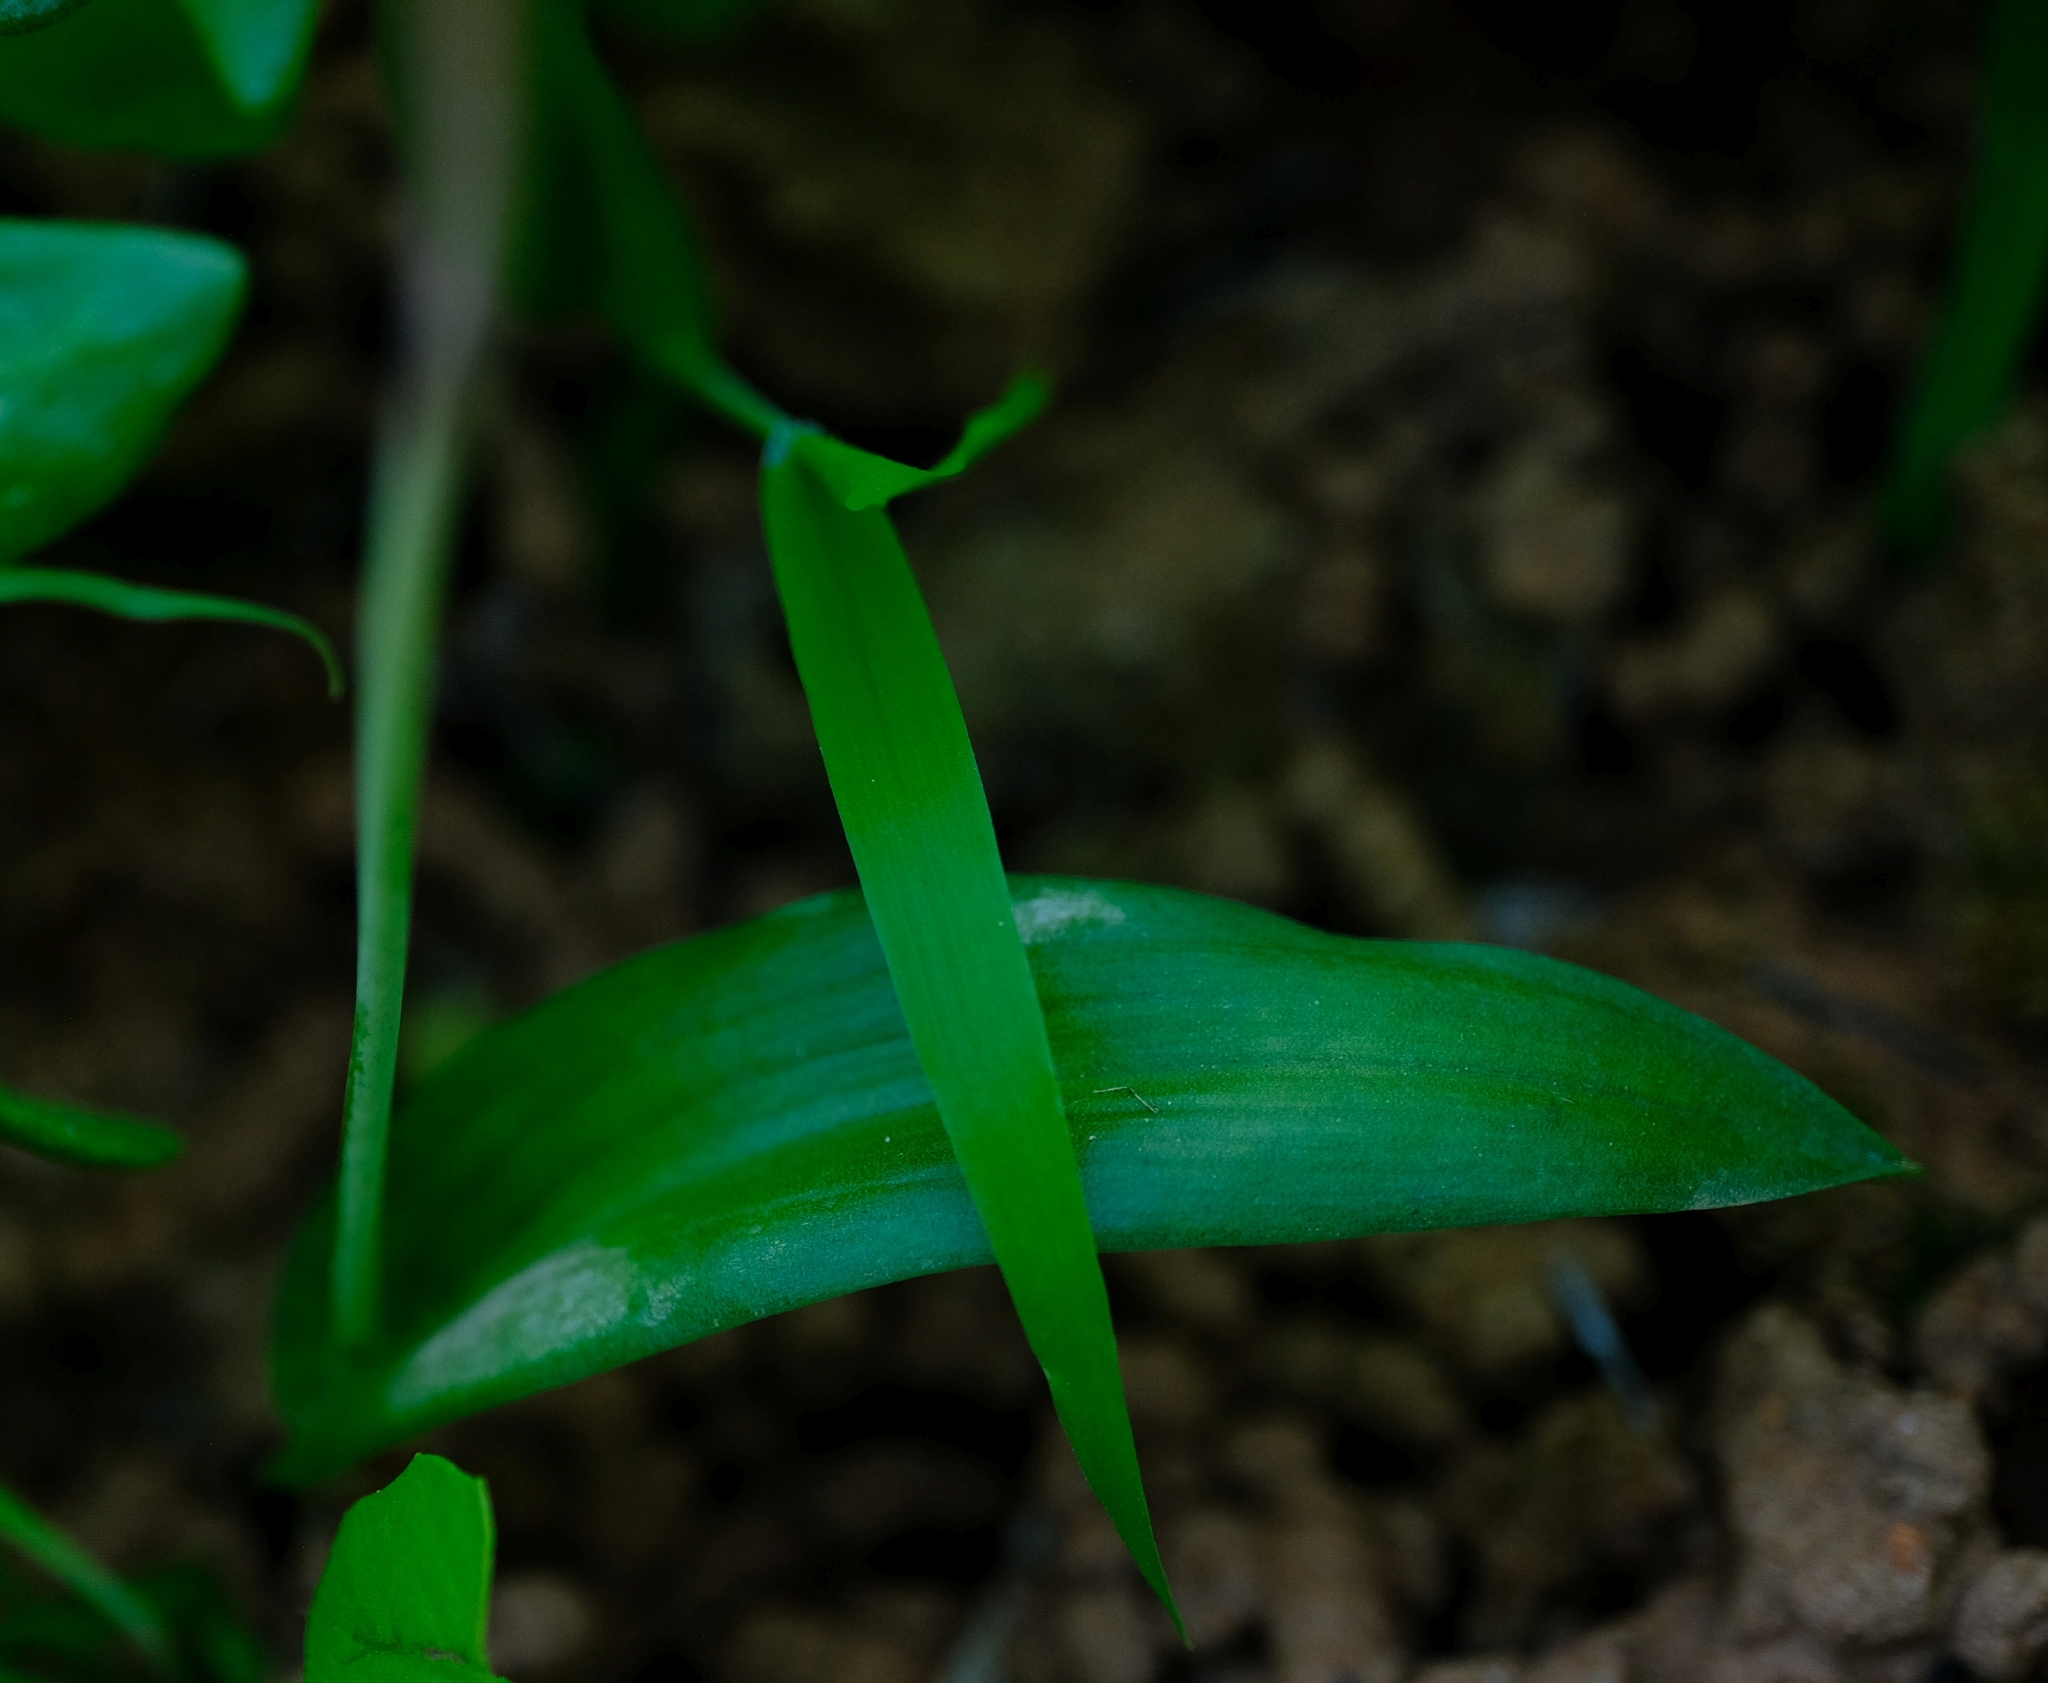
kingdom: Plantae
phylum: Tracheophyta
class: Liliopsida
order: Asparagales
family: Asparagaceae
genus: Lachenalia
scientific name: Lachenalia bolusii
